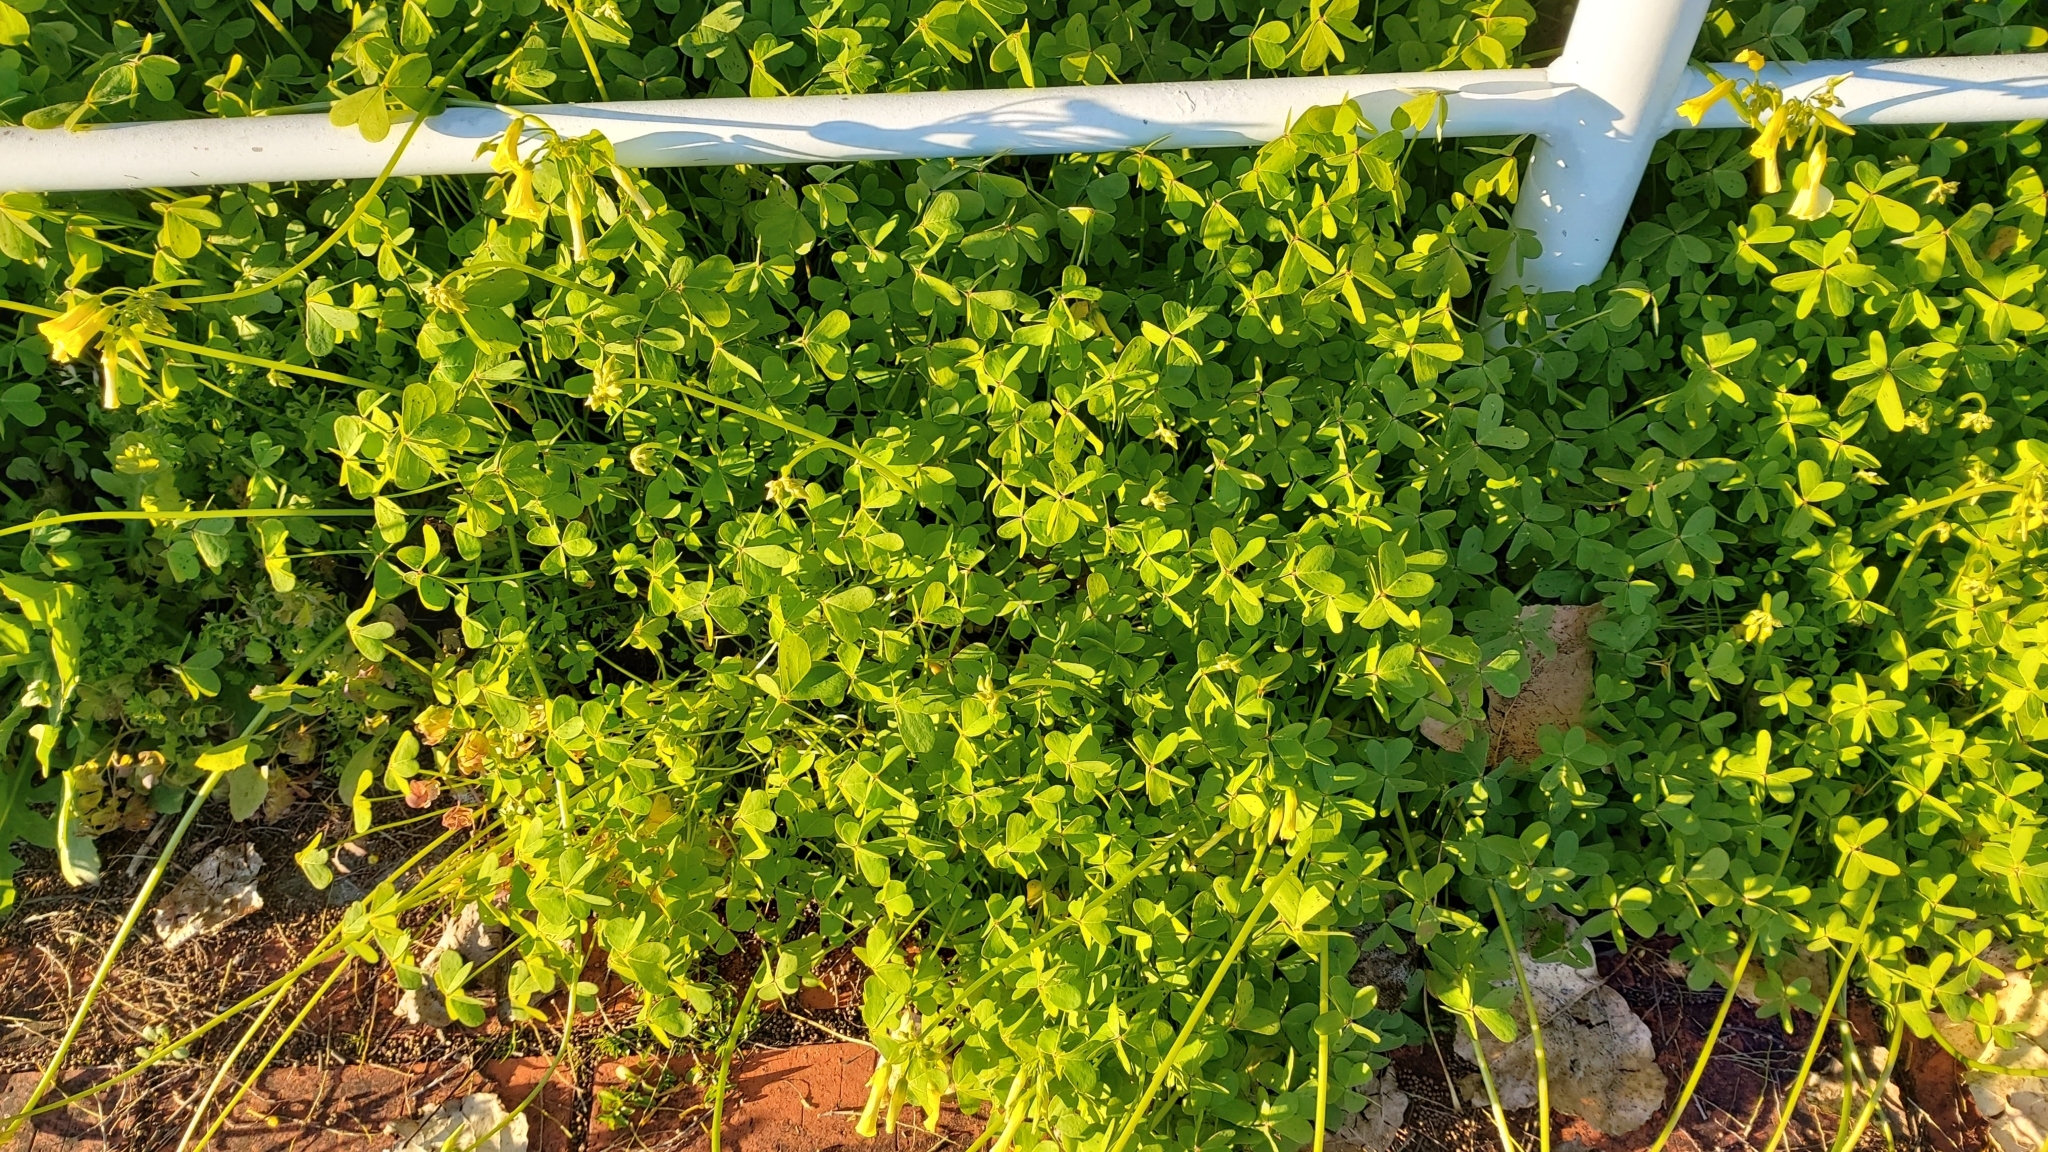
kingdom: Plantae
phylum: Tracheophyta
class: Magnoliopsida
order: Oxalidales
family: Oxalidaceae
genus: Oxalis
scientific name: Oxalis pes-caprae
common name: Bermuda-buttercup
